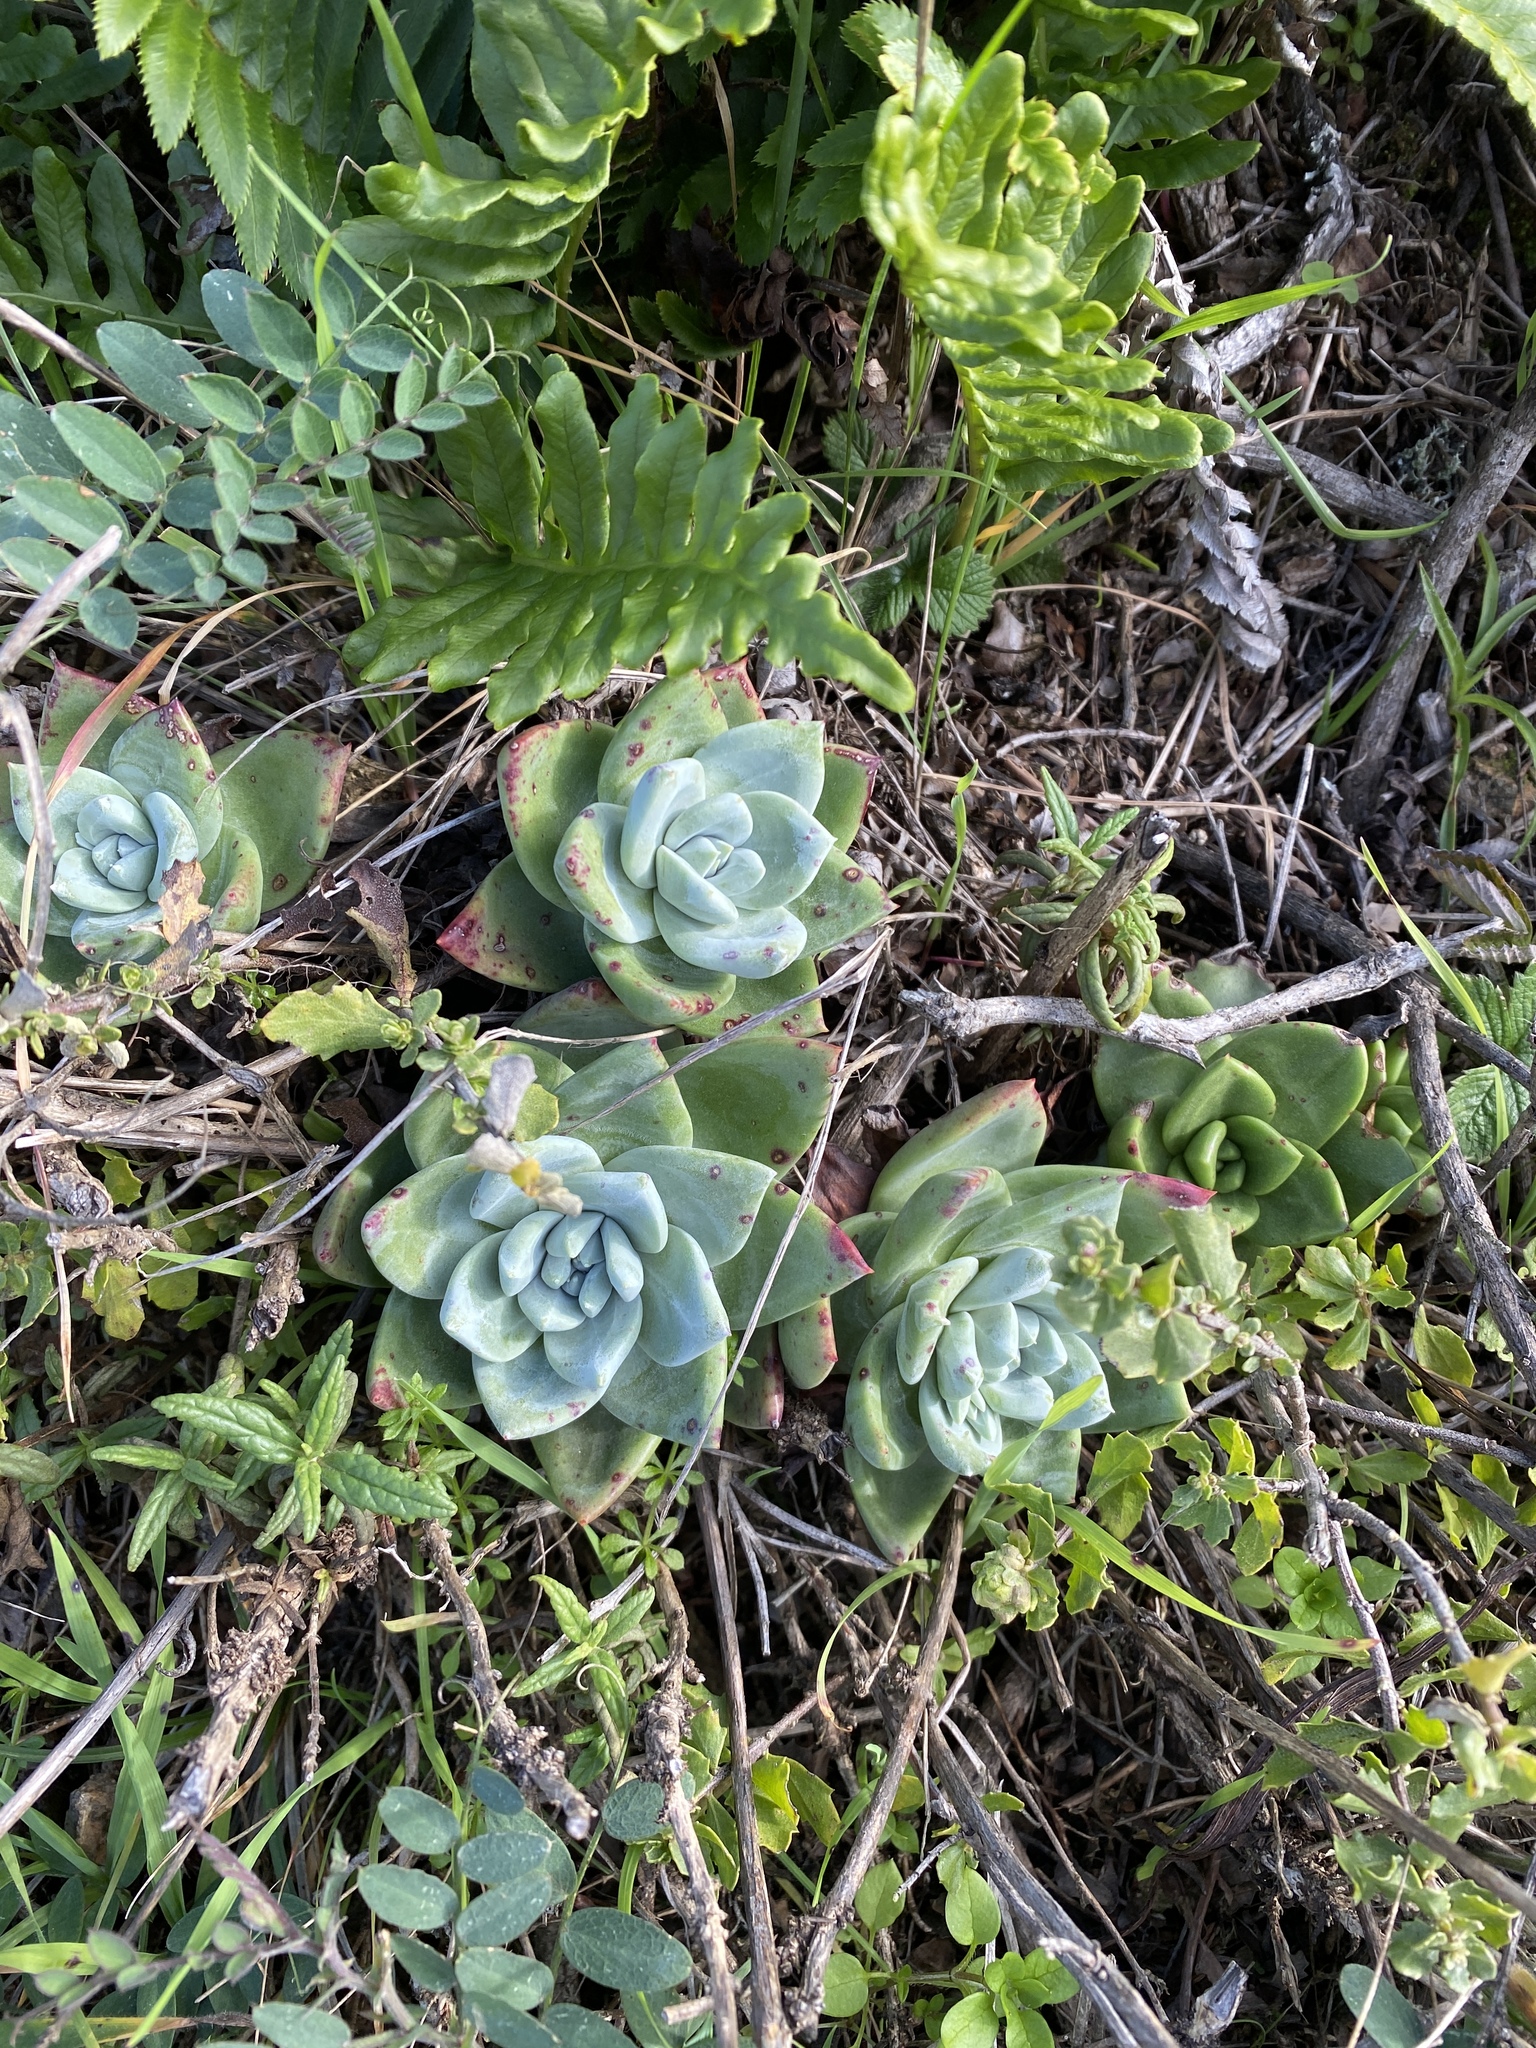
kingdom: Plantae
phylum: Tracheophyta
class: Magnoliopsida
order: Saxifragales
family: Crassulaceae
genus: Dudleya
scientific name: Dudleya farinosa
